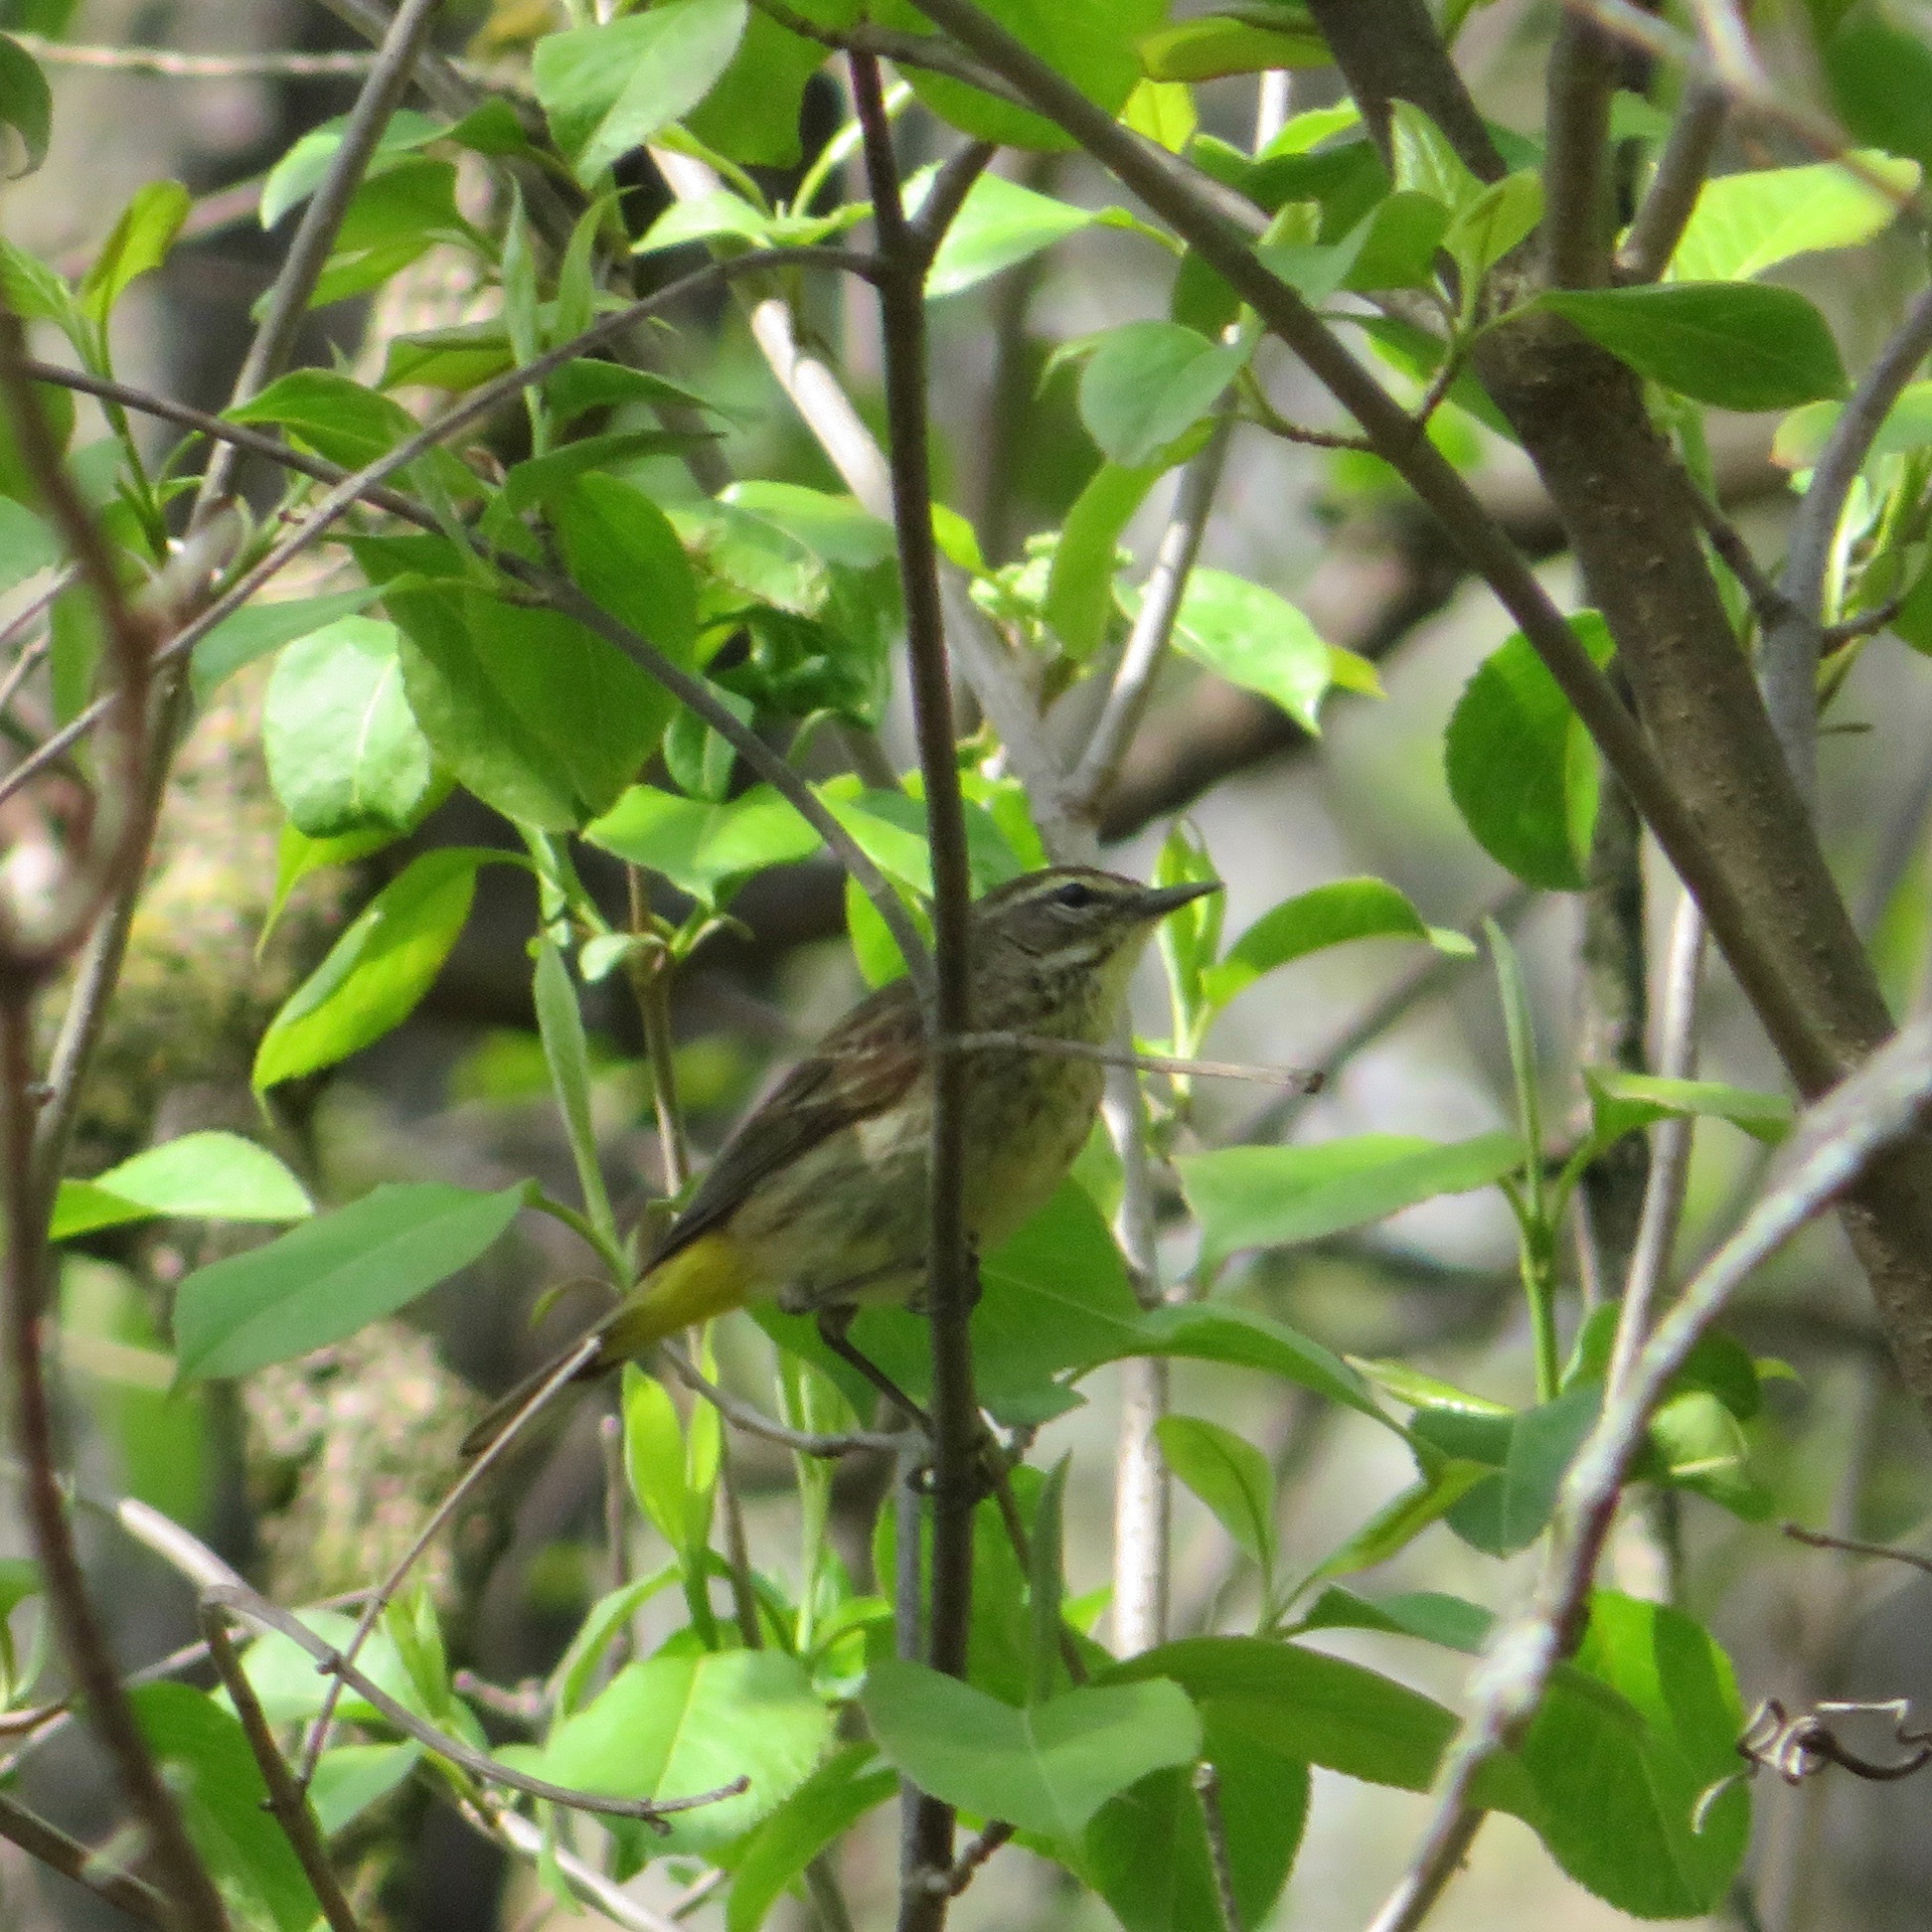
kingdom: Animalia
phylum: Chordata
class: Aves
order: Passeriformes
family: Parulidae
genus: Setophaga
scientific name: Setophaga palmarum
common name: Palm warbler
